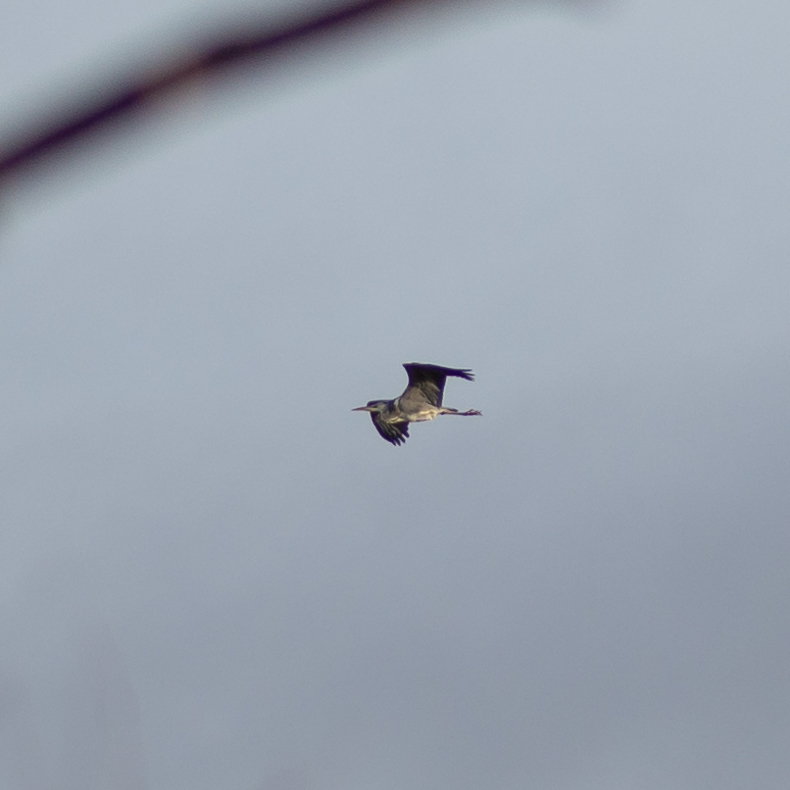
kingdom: Animalia
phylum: Chordata
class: Aves
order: Pelecaniformes
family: Ardeidae
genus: Ardea
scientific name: Ardea cinerea
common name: Grey heron
